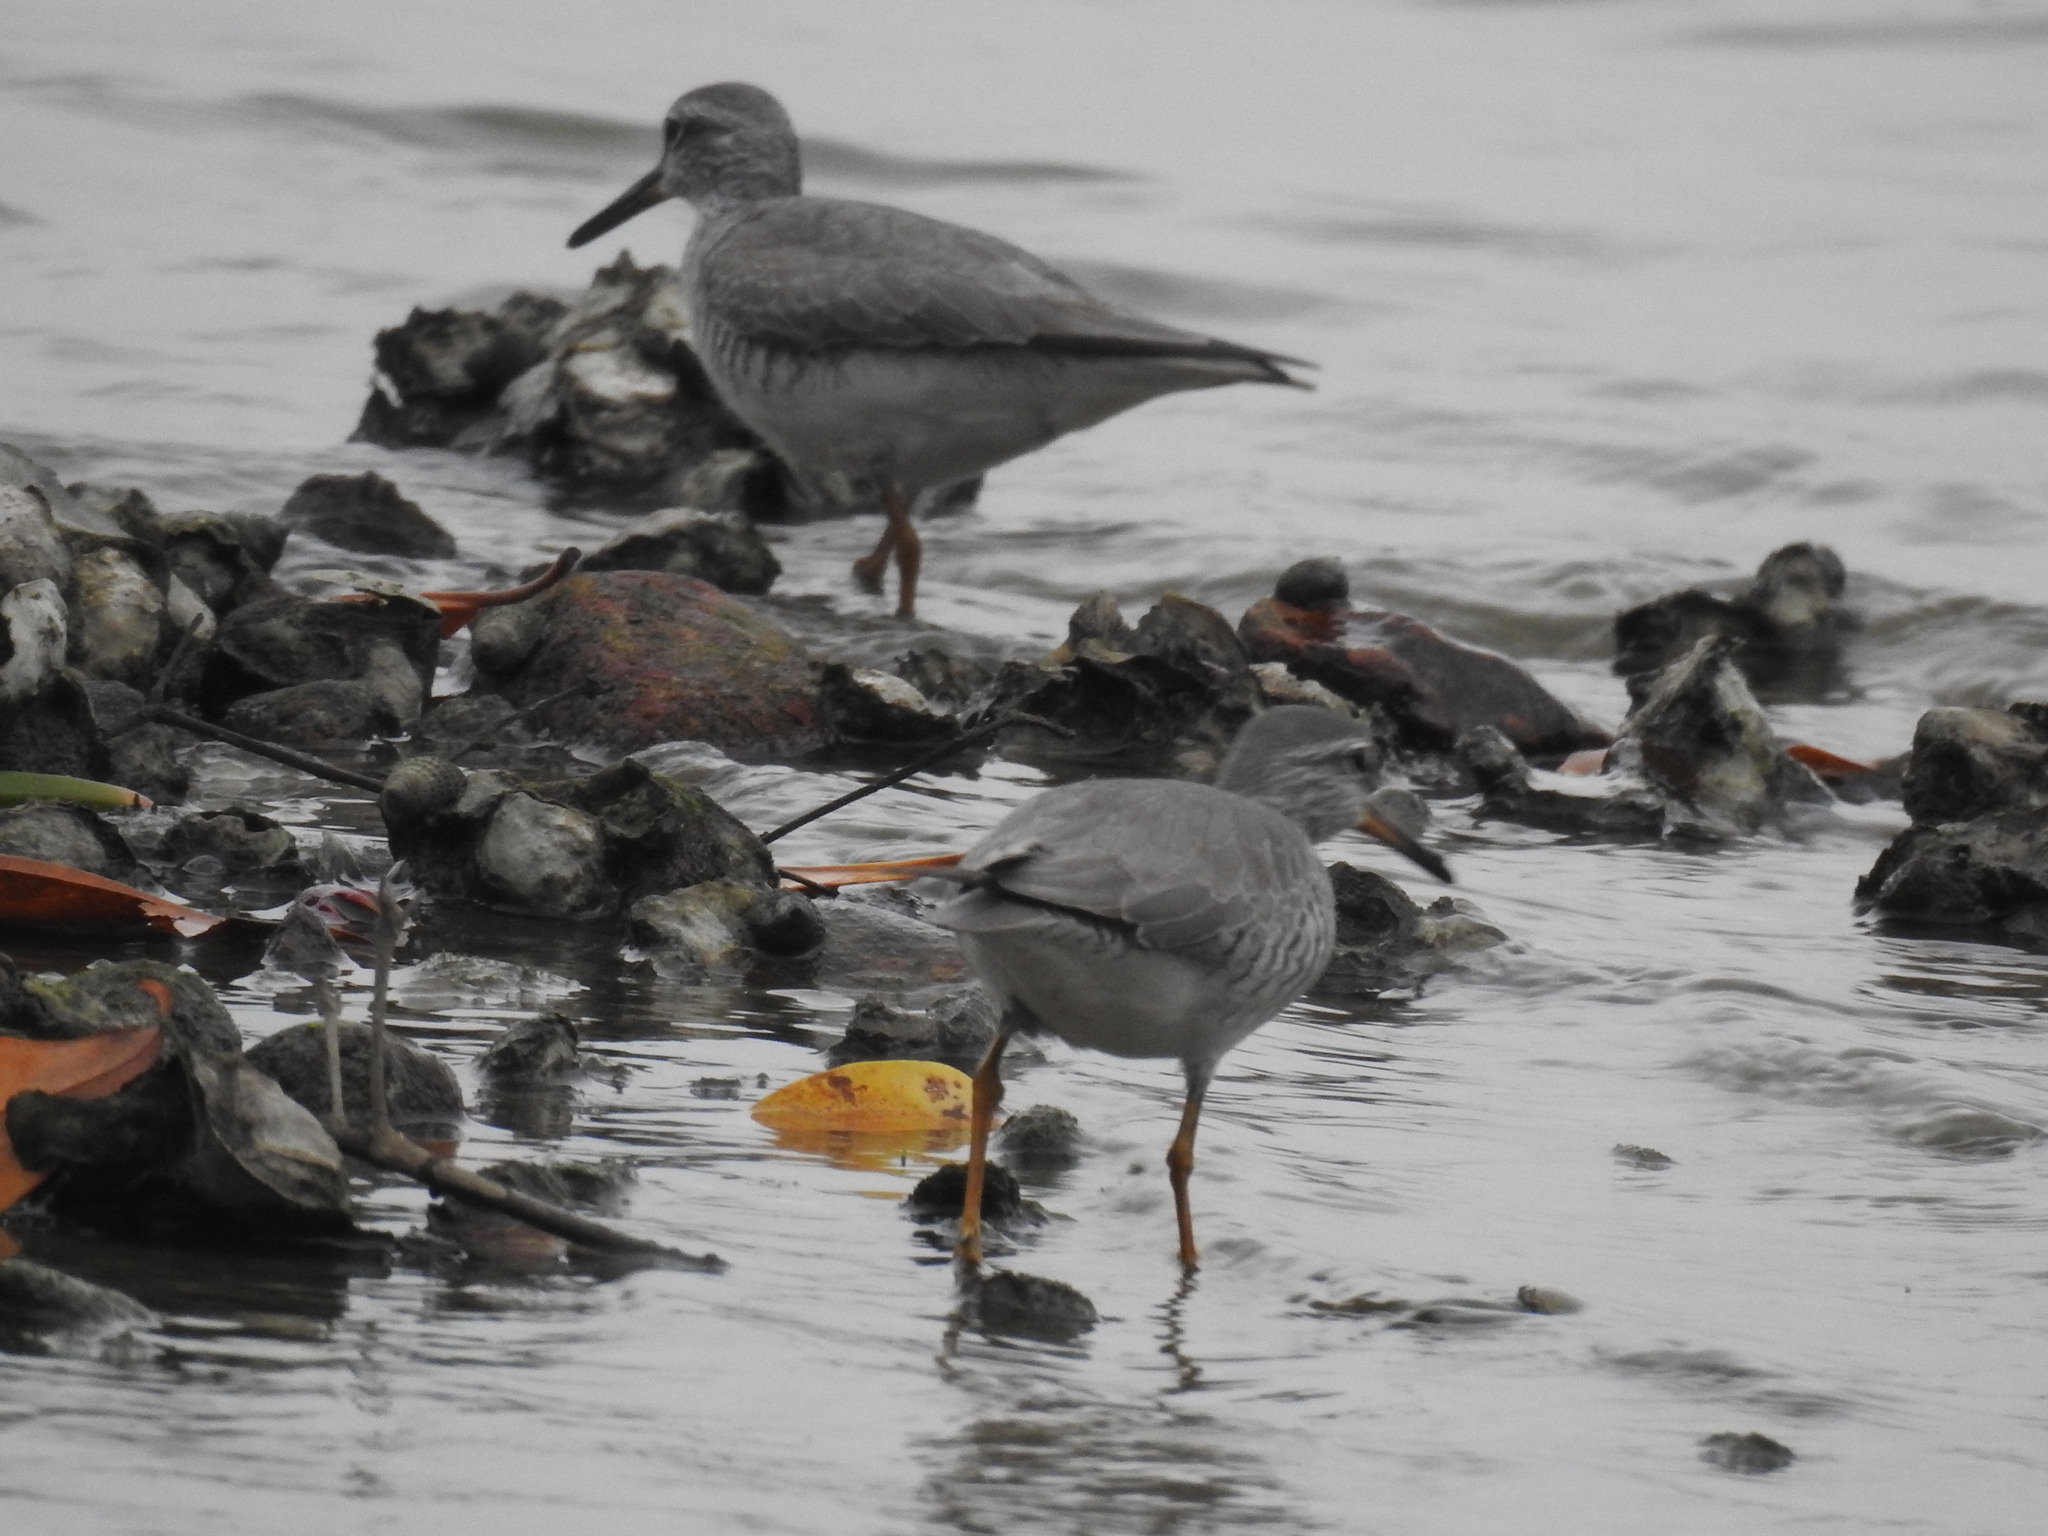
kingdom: Animalia
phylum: Chordata
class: Aves
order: Charadriiformes
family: Scolopacidae
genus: Tringa
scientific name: Tringa brevipes
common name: Grey-tailed tattler
